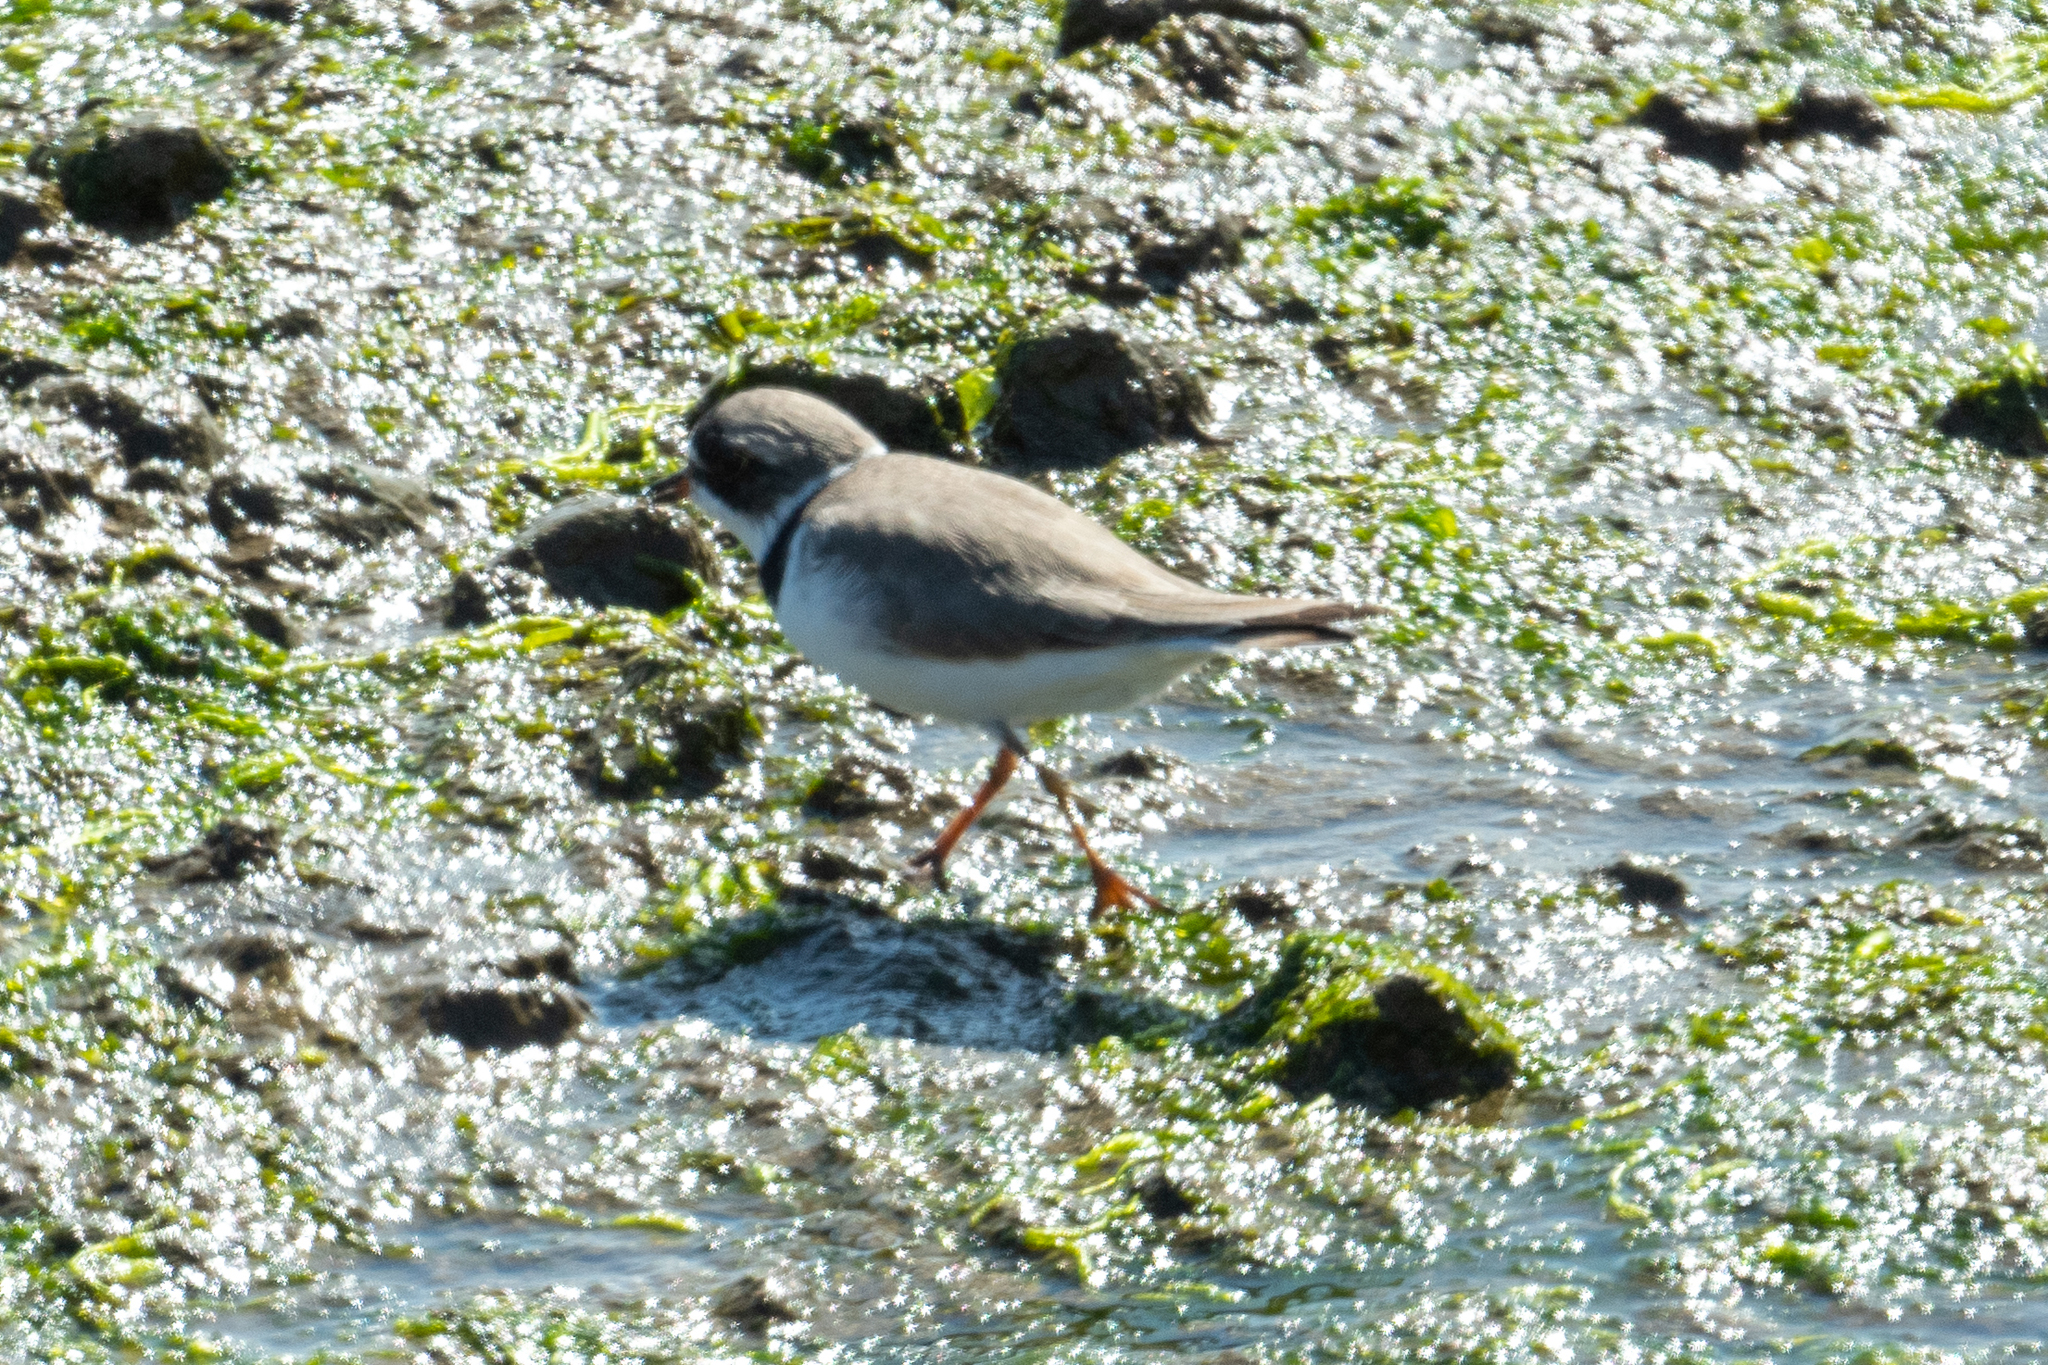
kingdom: Animalia
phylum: Chordata
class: Aves
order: Charadriiformes
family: Charadriidae
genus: Charadrius
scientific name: Charadrius semipalmatus
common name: Semipalmated plover
